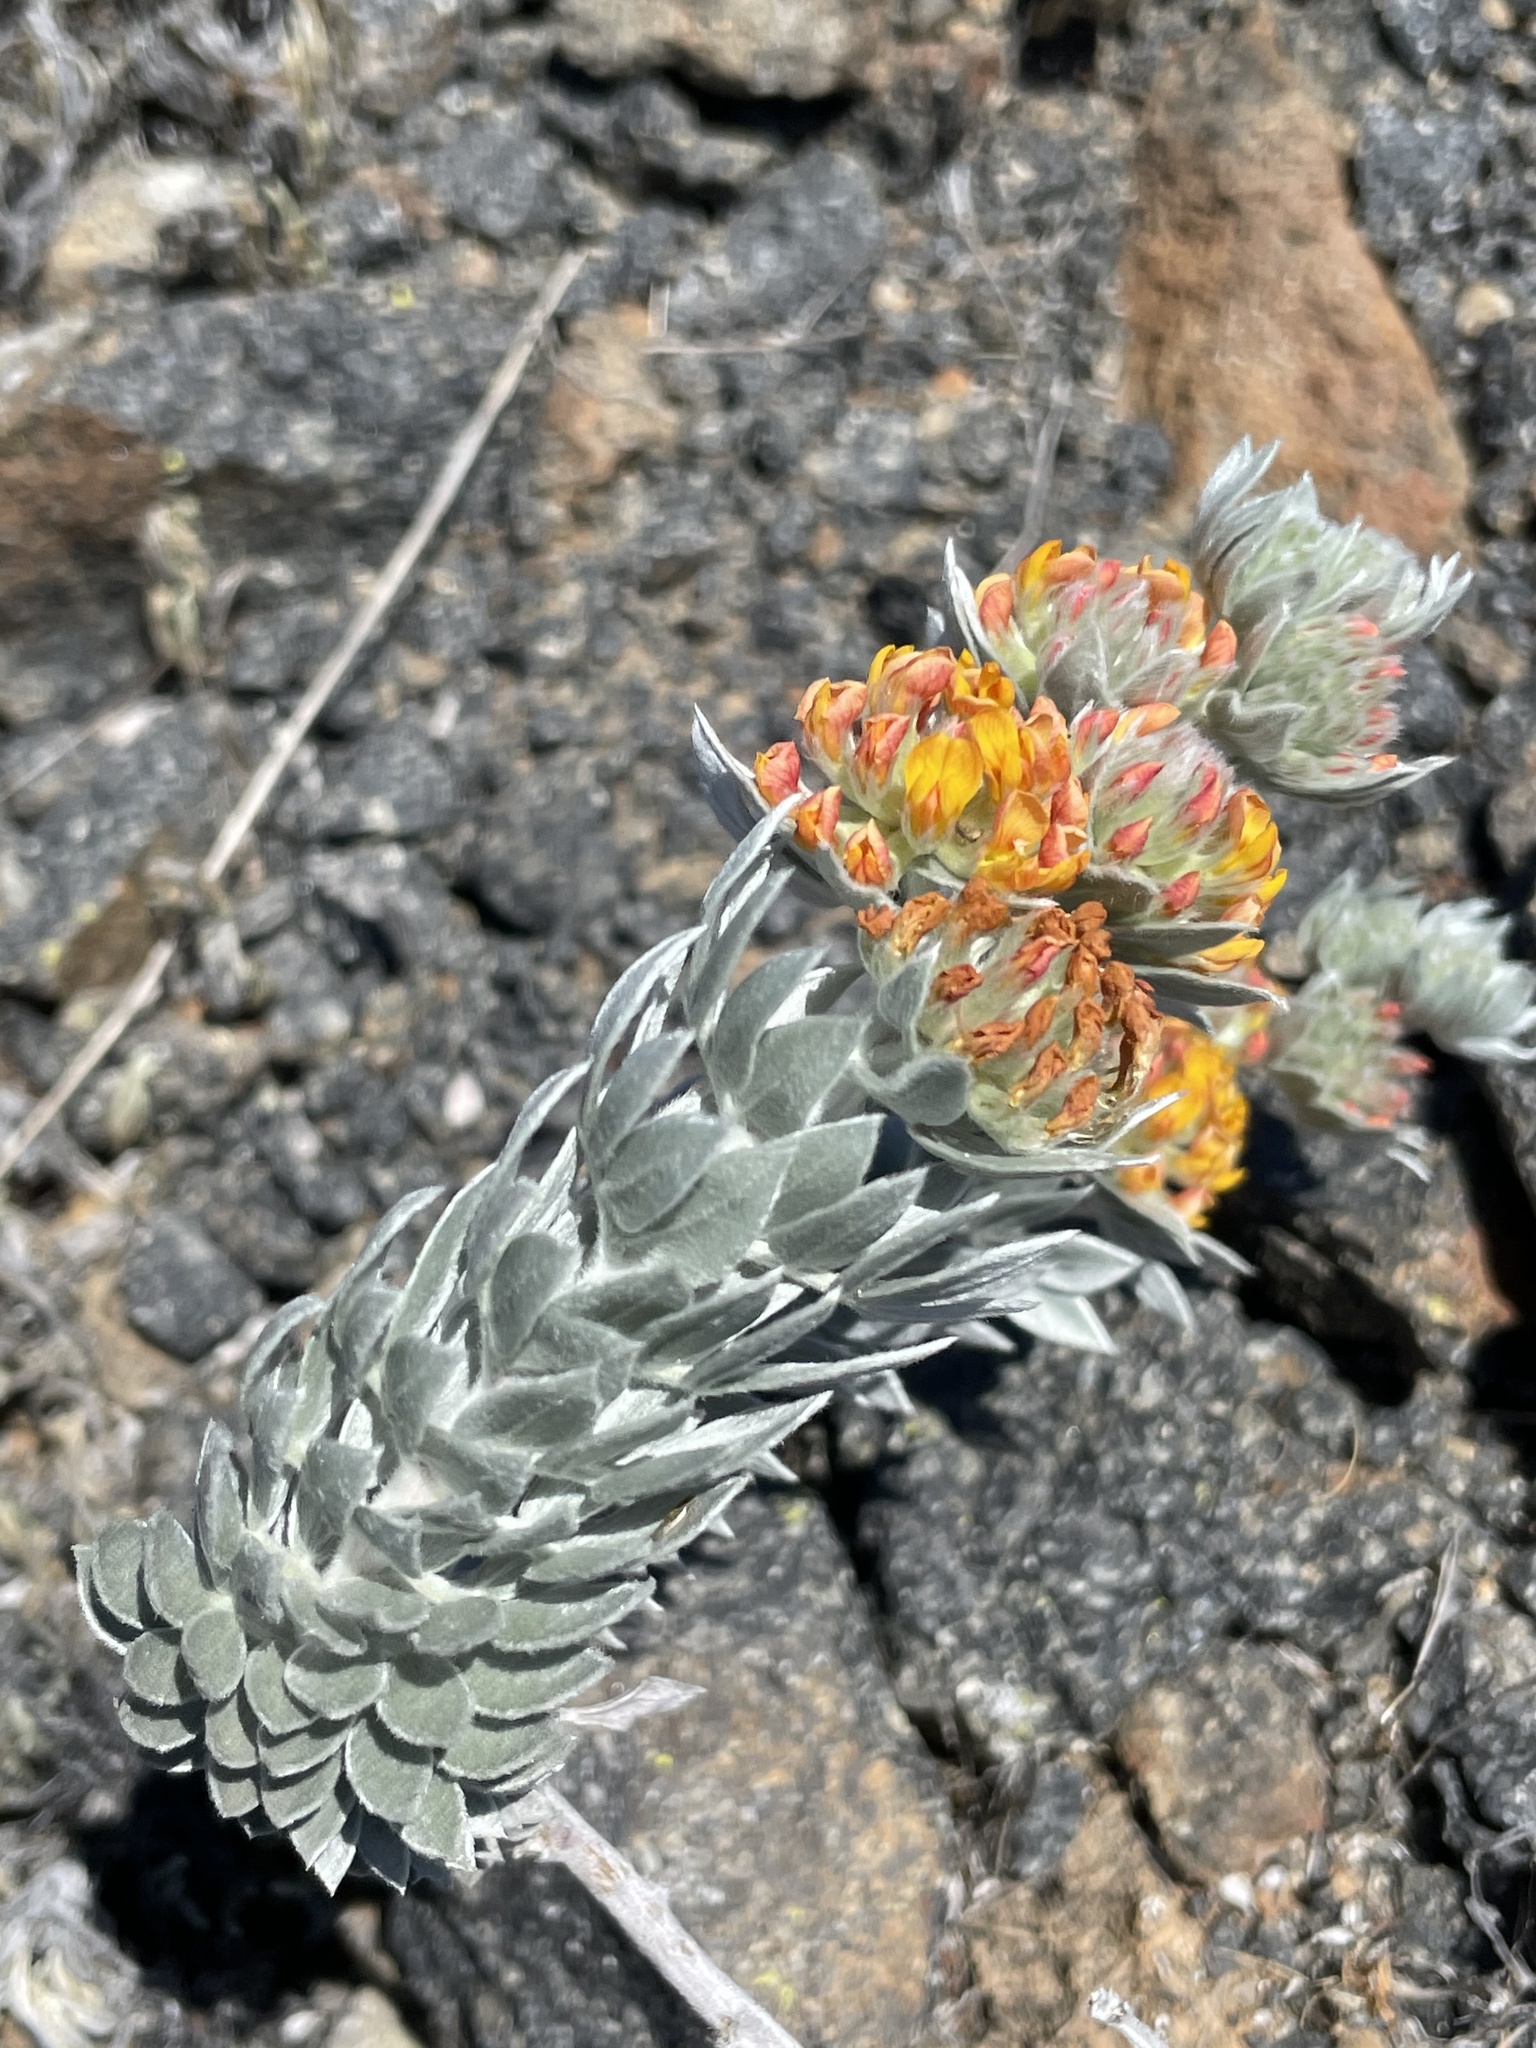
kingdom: Plantae
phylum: Tracheophyta
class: Magnoliopsida
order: Fabales
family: Fabaceae
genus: Acmispon
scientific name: Acmispon argophyllus
